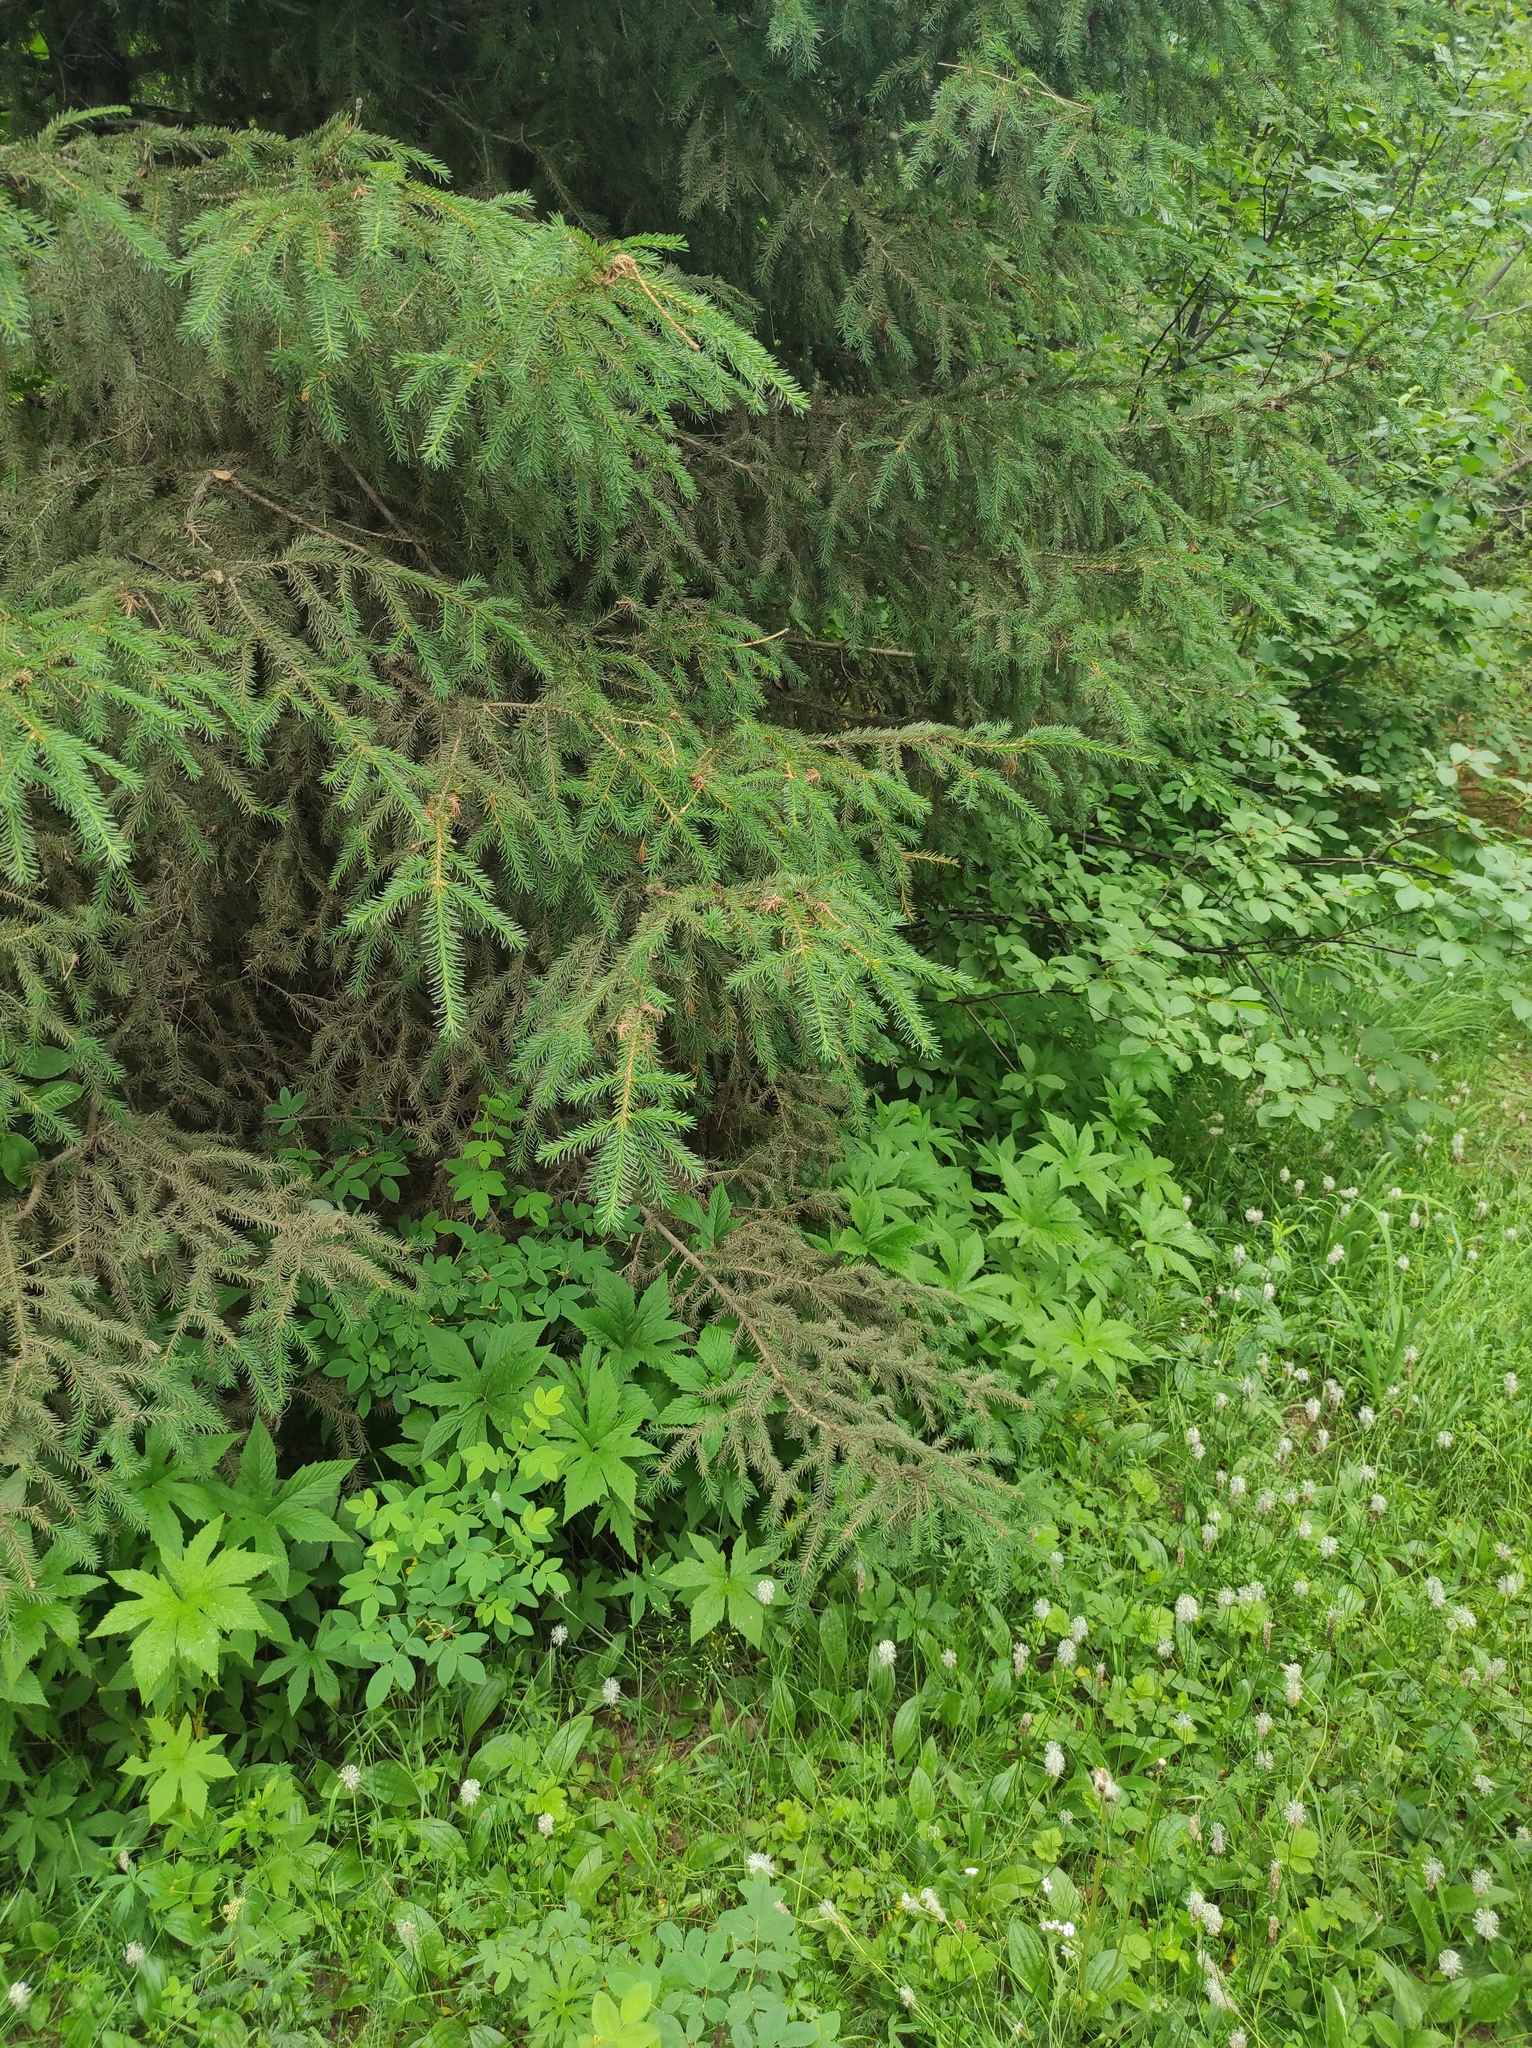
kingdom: Plantae
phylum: Tracheophyta
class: Pinopsida
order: Pinales
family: Pinaceae
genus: Picea
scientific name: Picea obovata
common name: Siberian spruce
